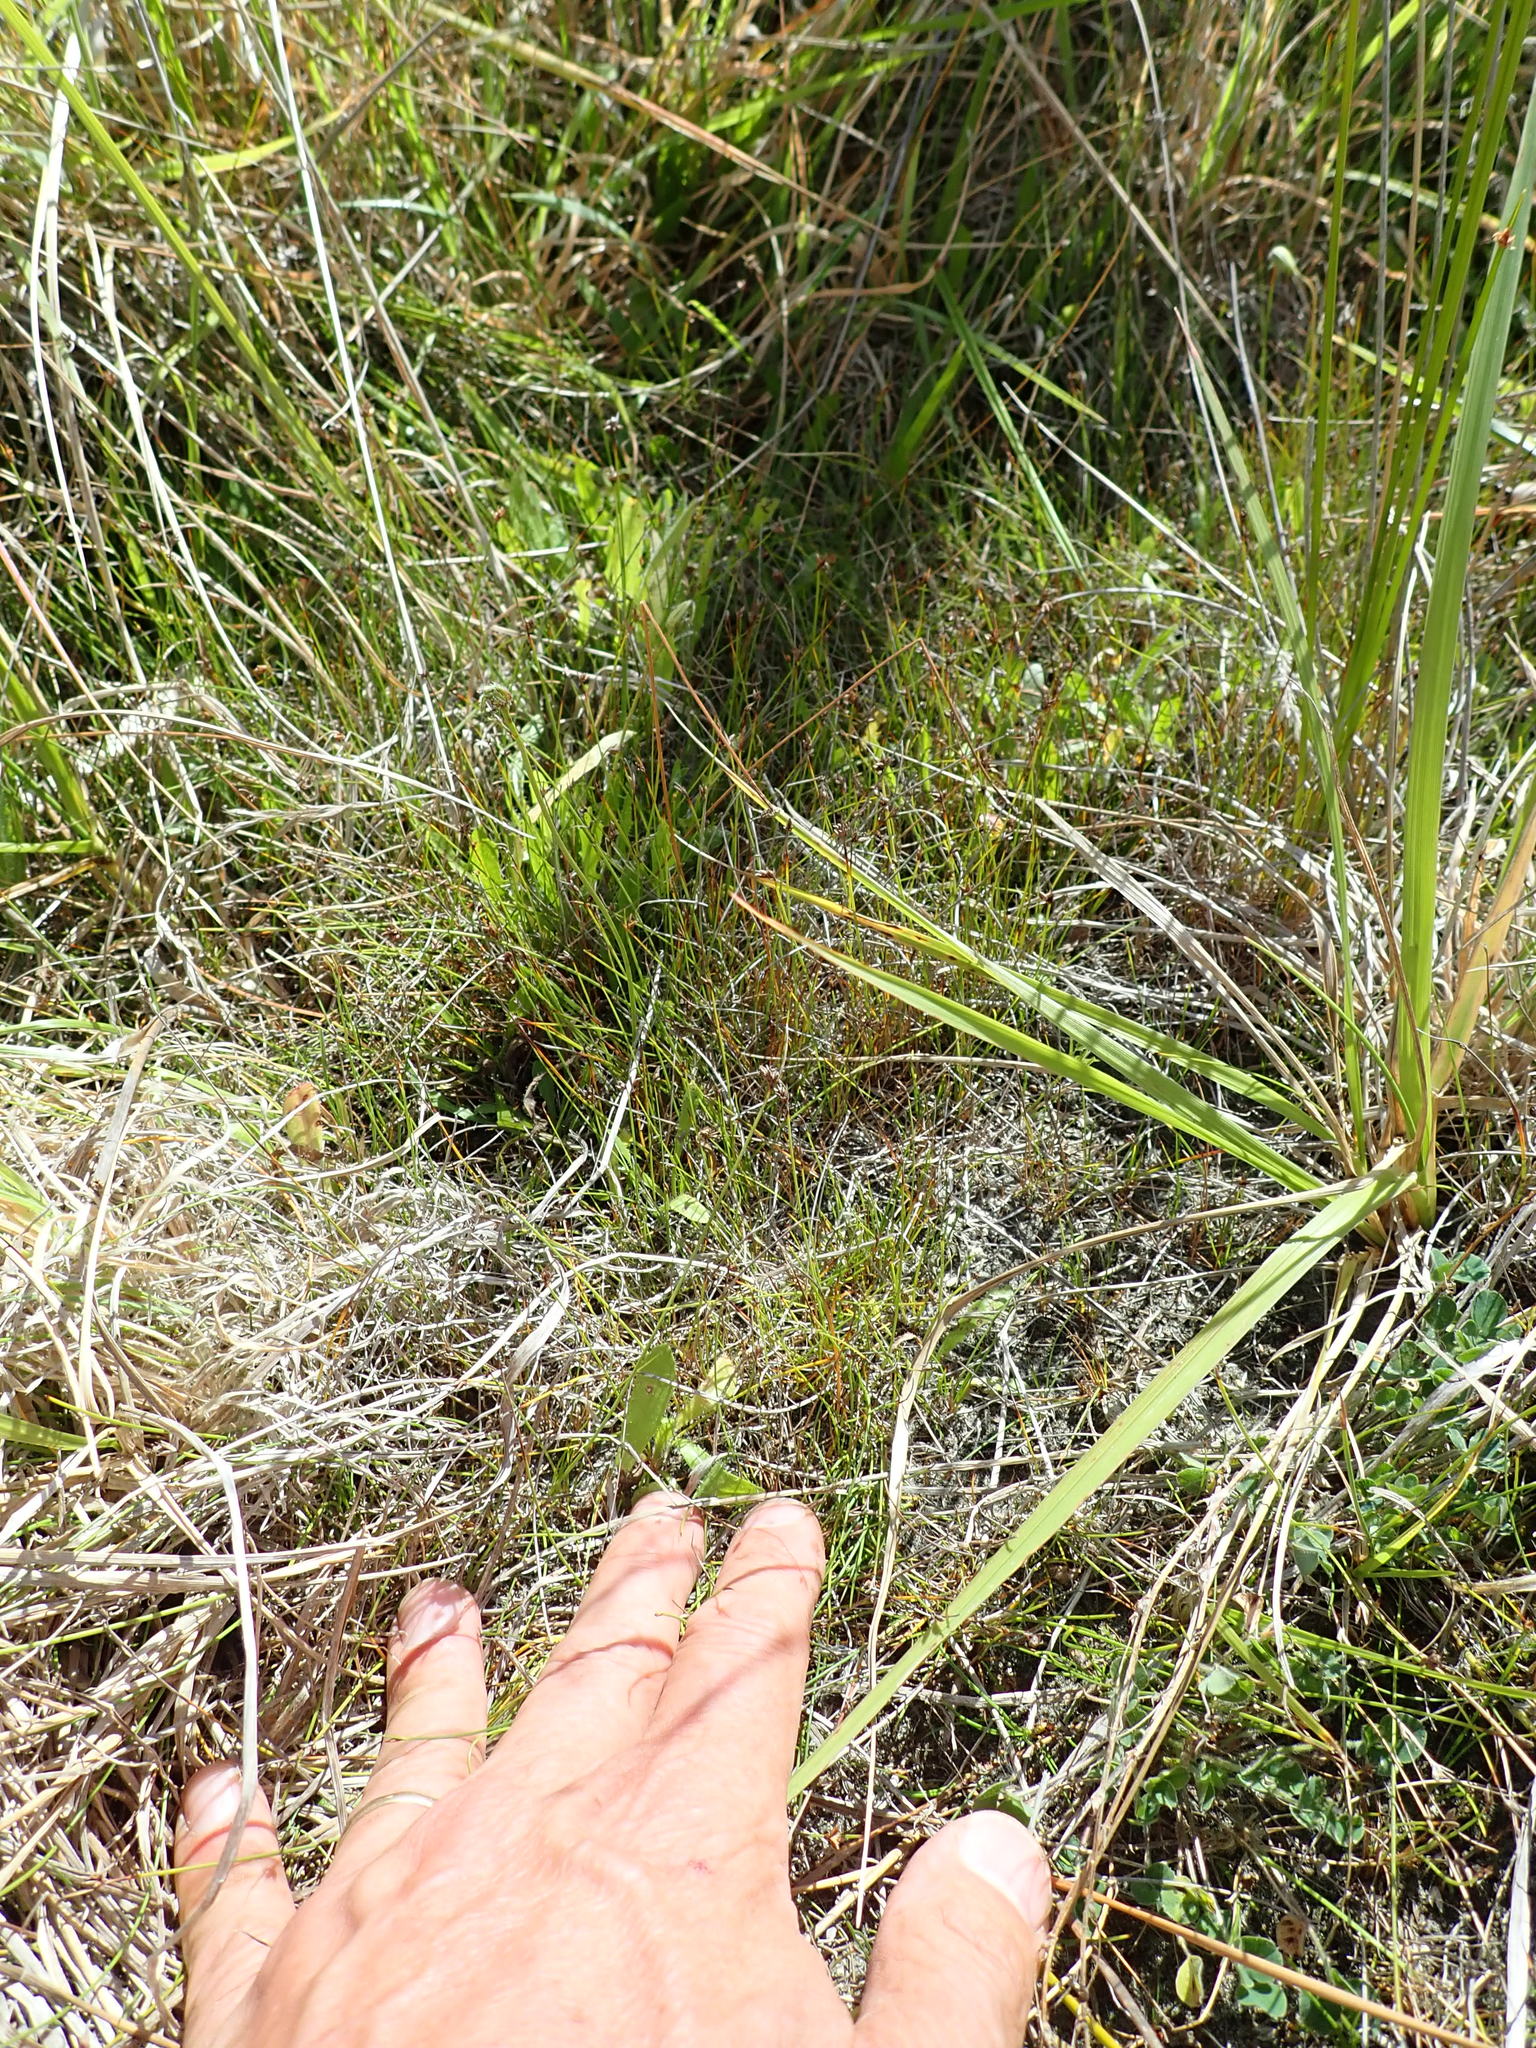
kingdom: Plantae
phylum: Tracheophyta
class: Liliopsida
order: Poales
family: Cyperaceae
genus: Schoenus
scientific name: Schoenus nitens
